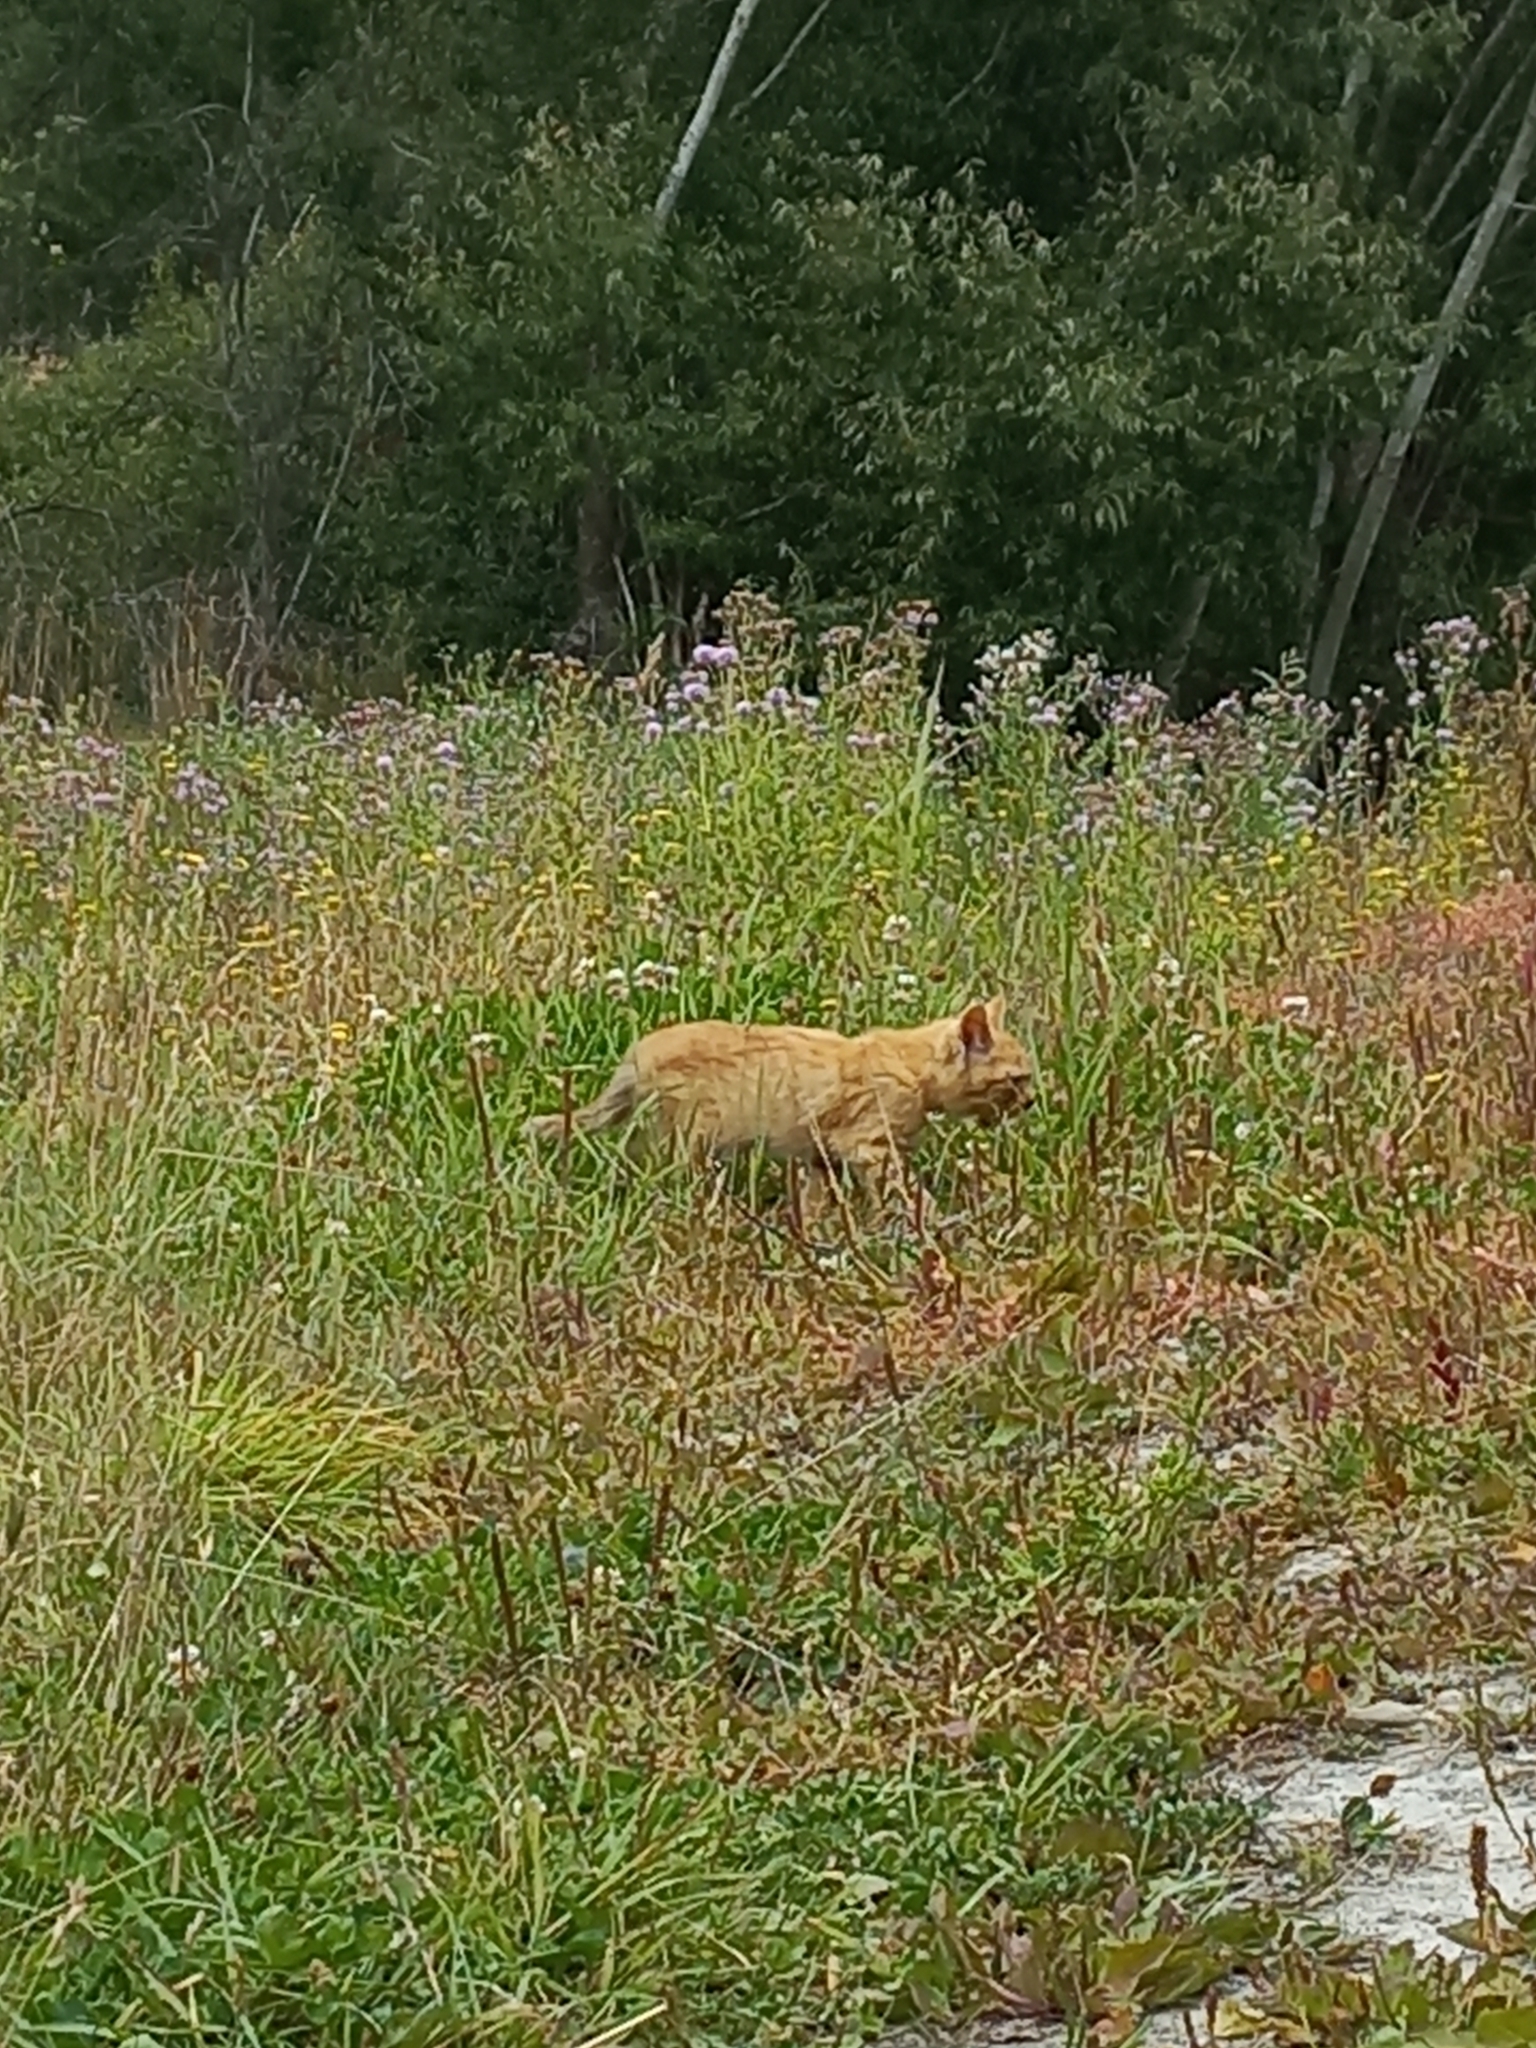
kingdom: Animalia
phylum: Chordata
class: Mammalia
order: Carnivora
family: Felidae
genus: Felis
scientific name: Felis catus
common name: Domestic cat
